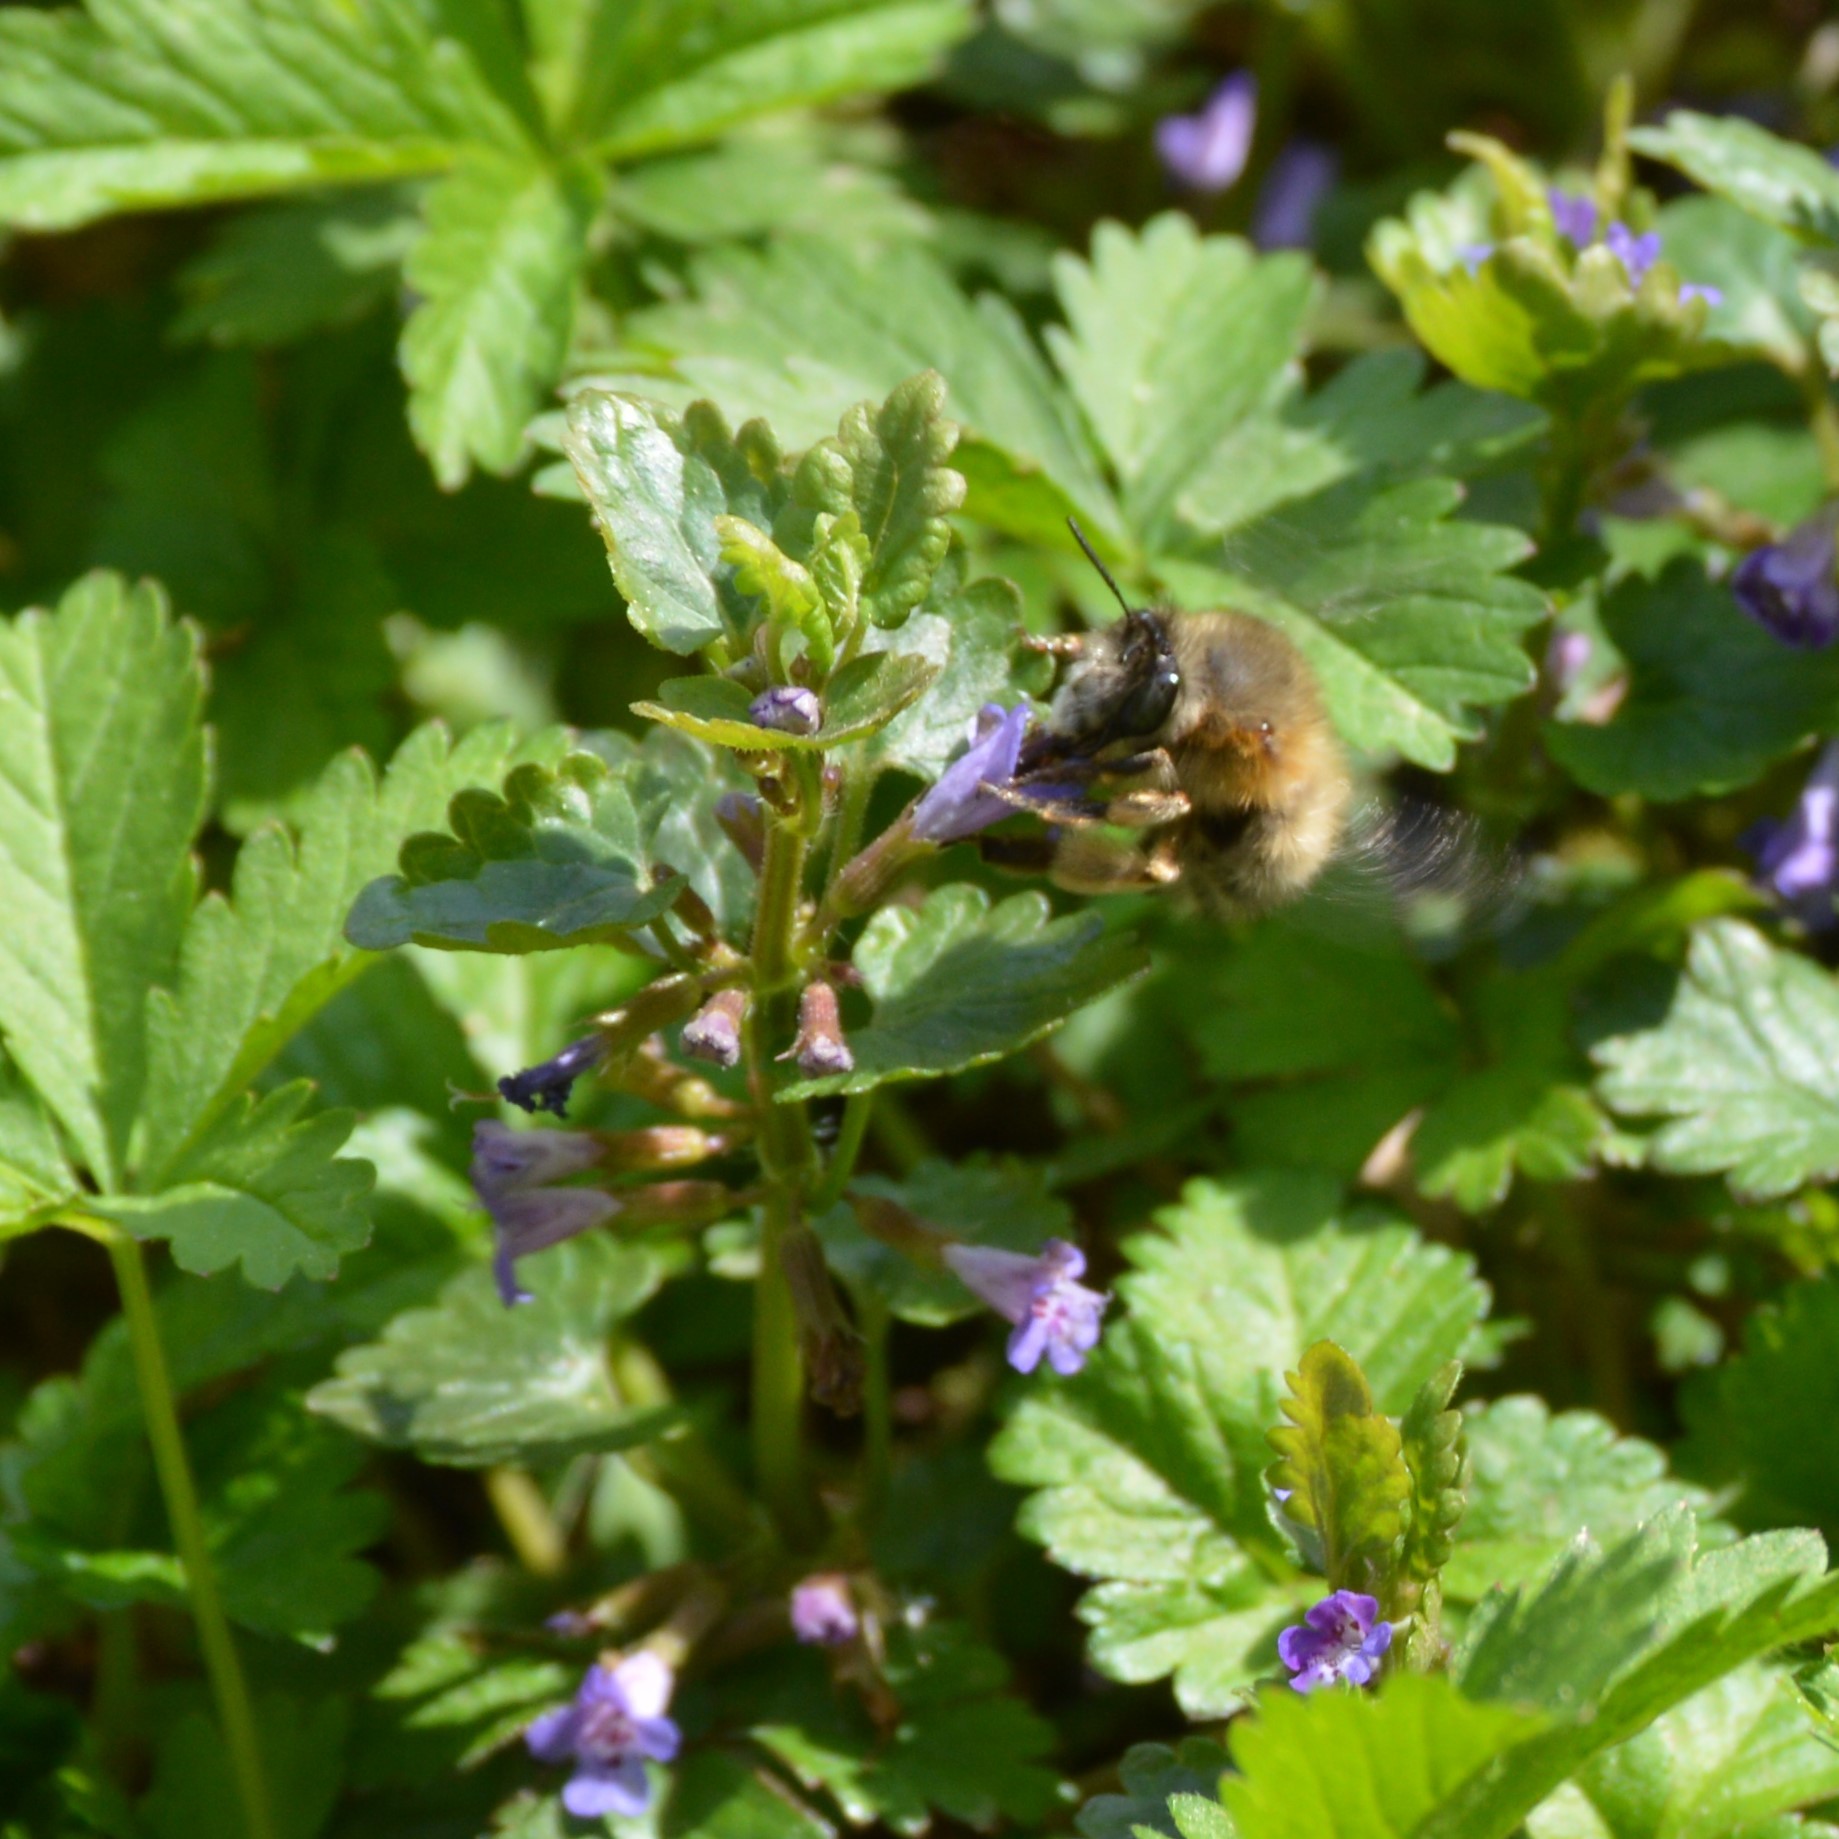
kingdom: Animalia
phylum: Arthropoda
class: Insecta
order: Hymenoptera
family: Apidae
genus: Anthophora
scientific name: Anthophora plumipes
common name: Hairy-footed flower bee
